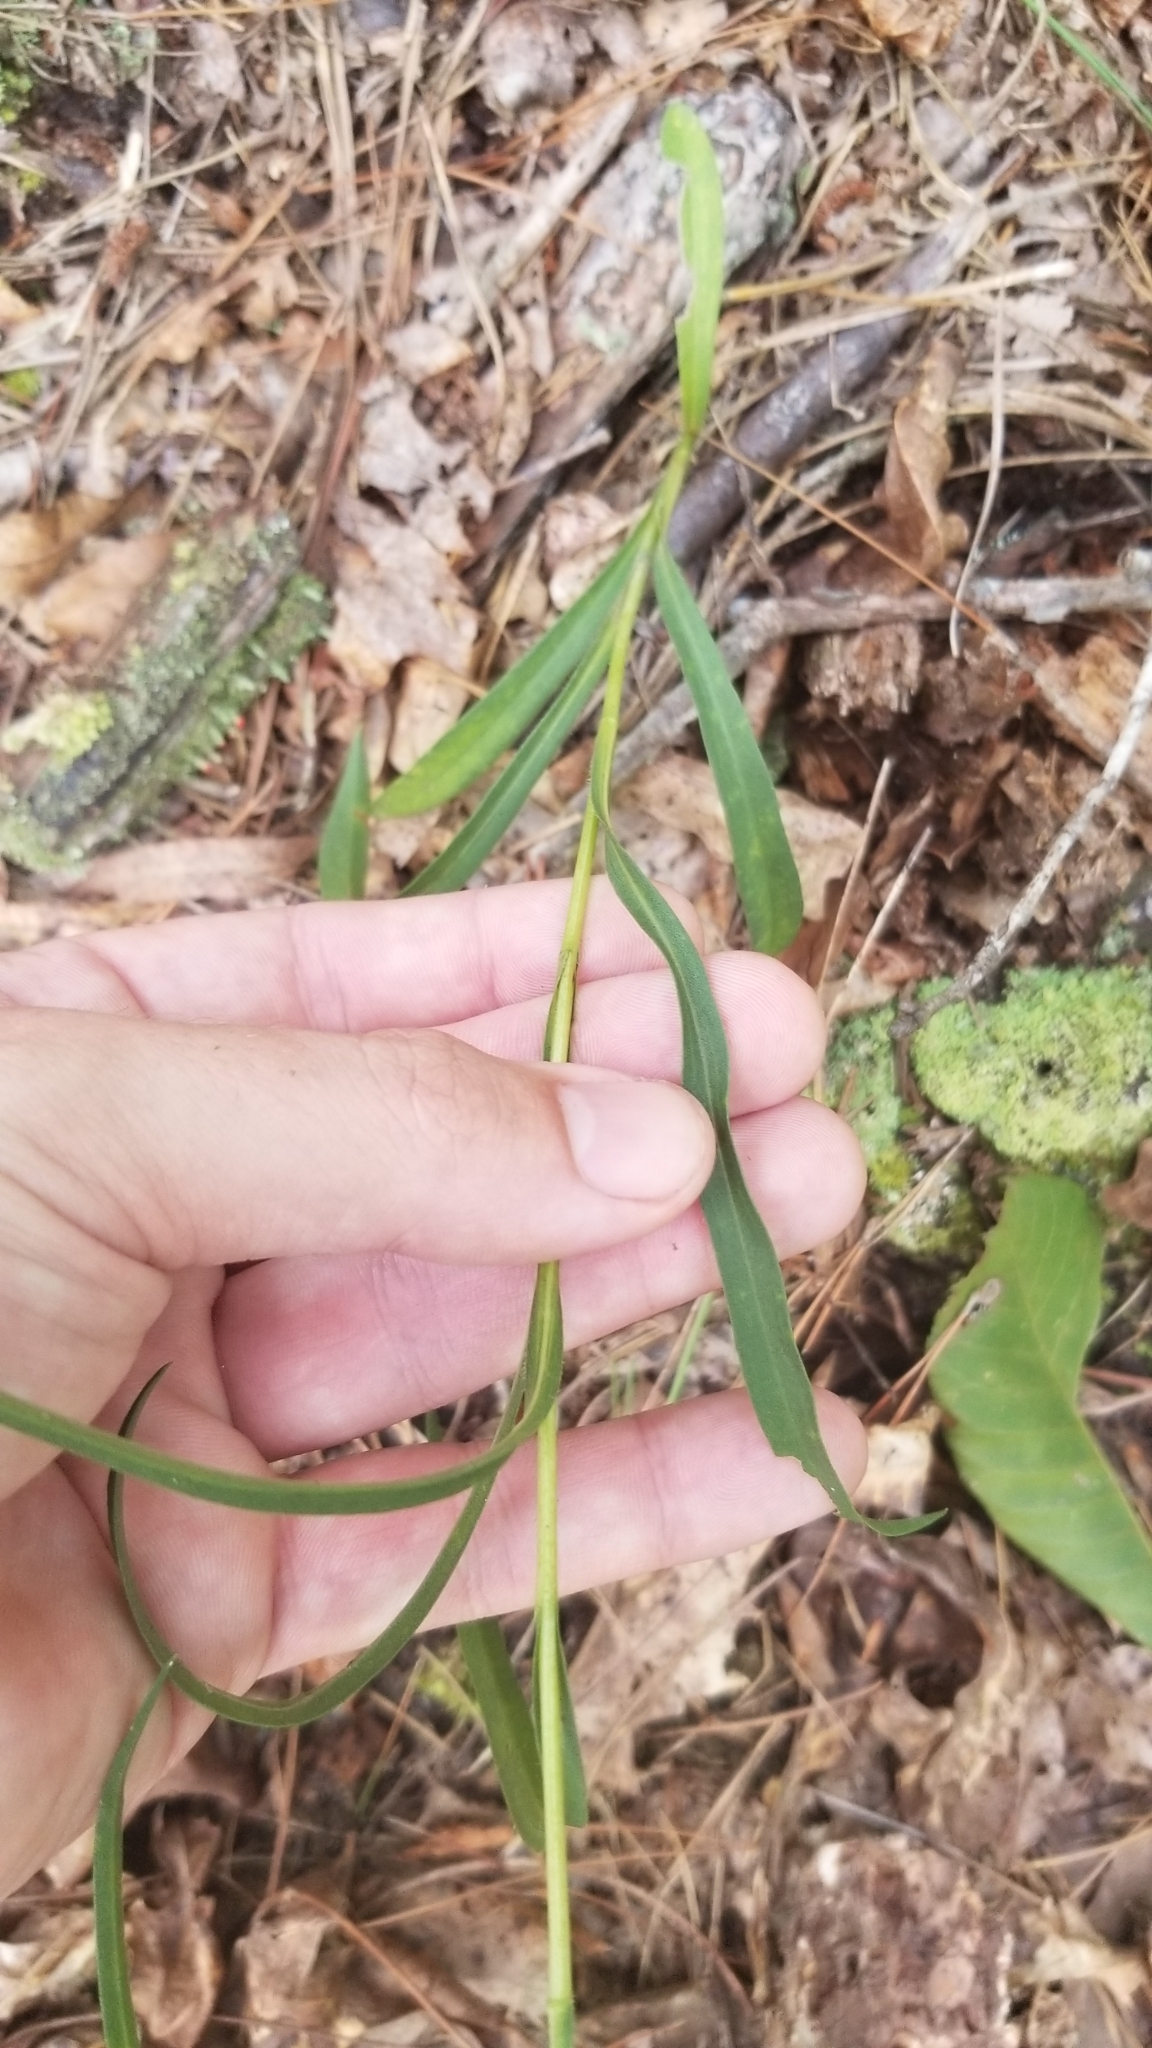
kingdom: Plantae
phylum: Tracheophyta
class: Magnoliopsida
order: Asterales
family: Asteraceae
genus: Eurybia
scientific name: Eurybia hemispherica
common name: Showy aster
